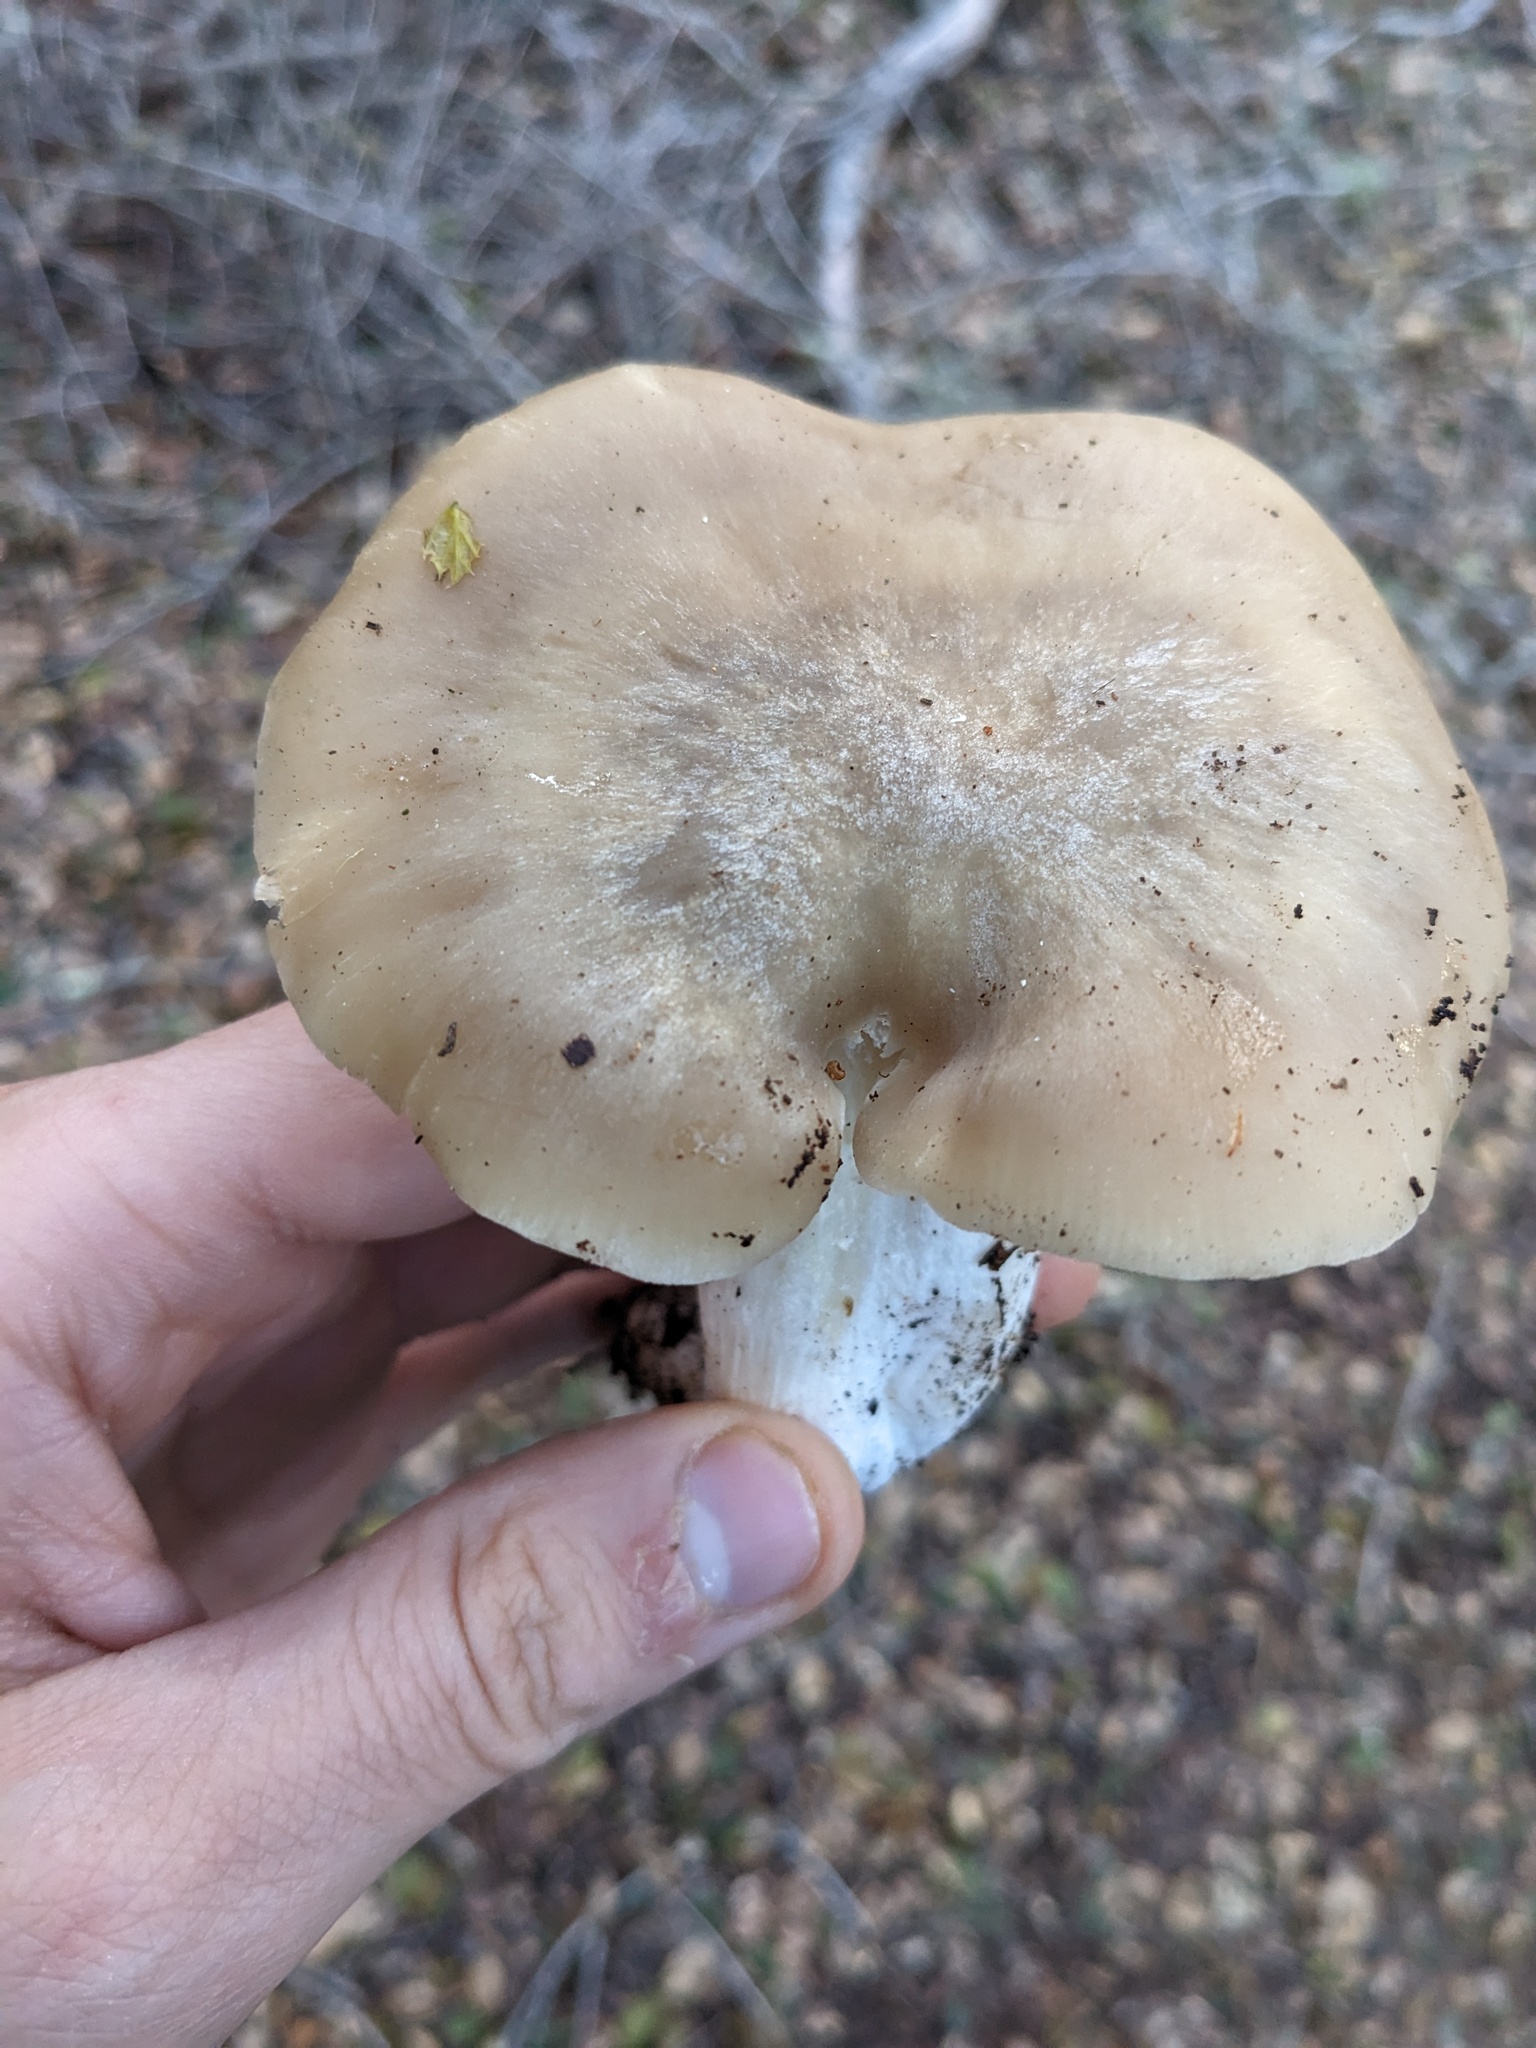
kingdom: Fungi
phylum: Basidiomycota
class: Agaricomycetes
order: Agaricales
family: Entolomataceae
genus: Entoloma
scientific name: Entoloma lividoalbum
